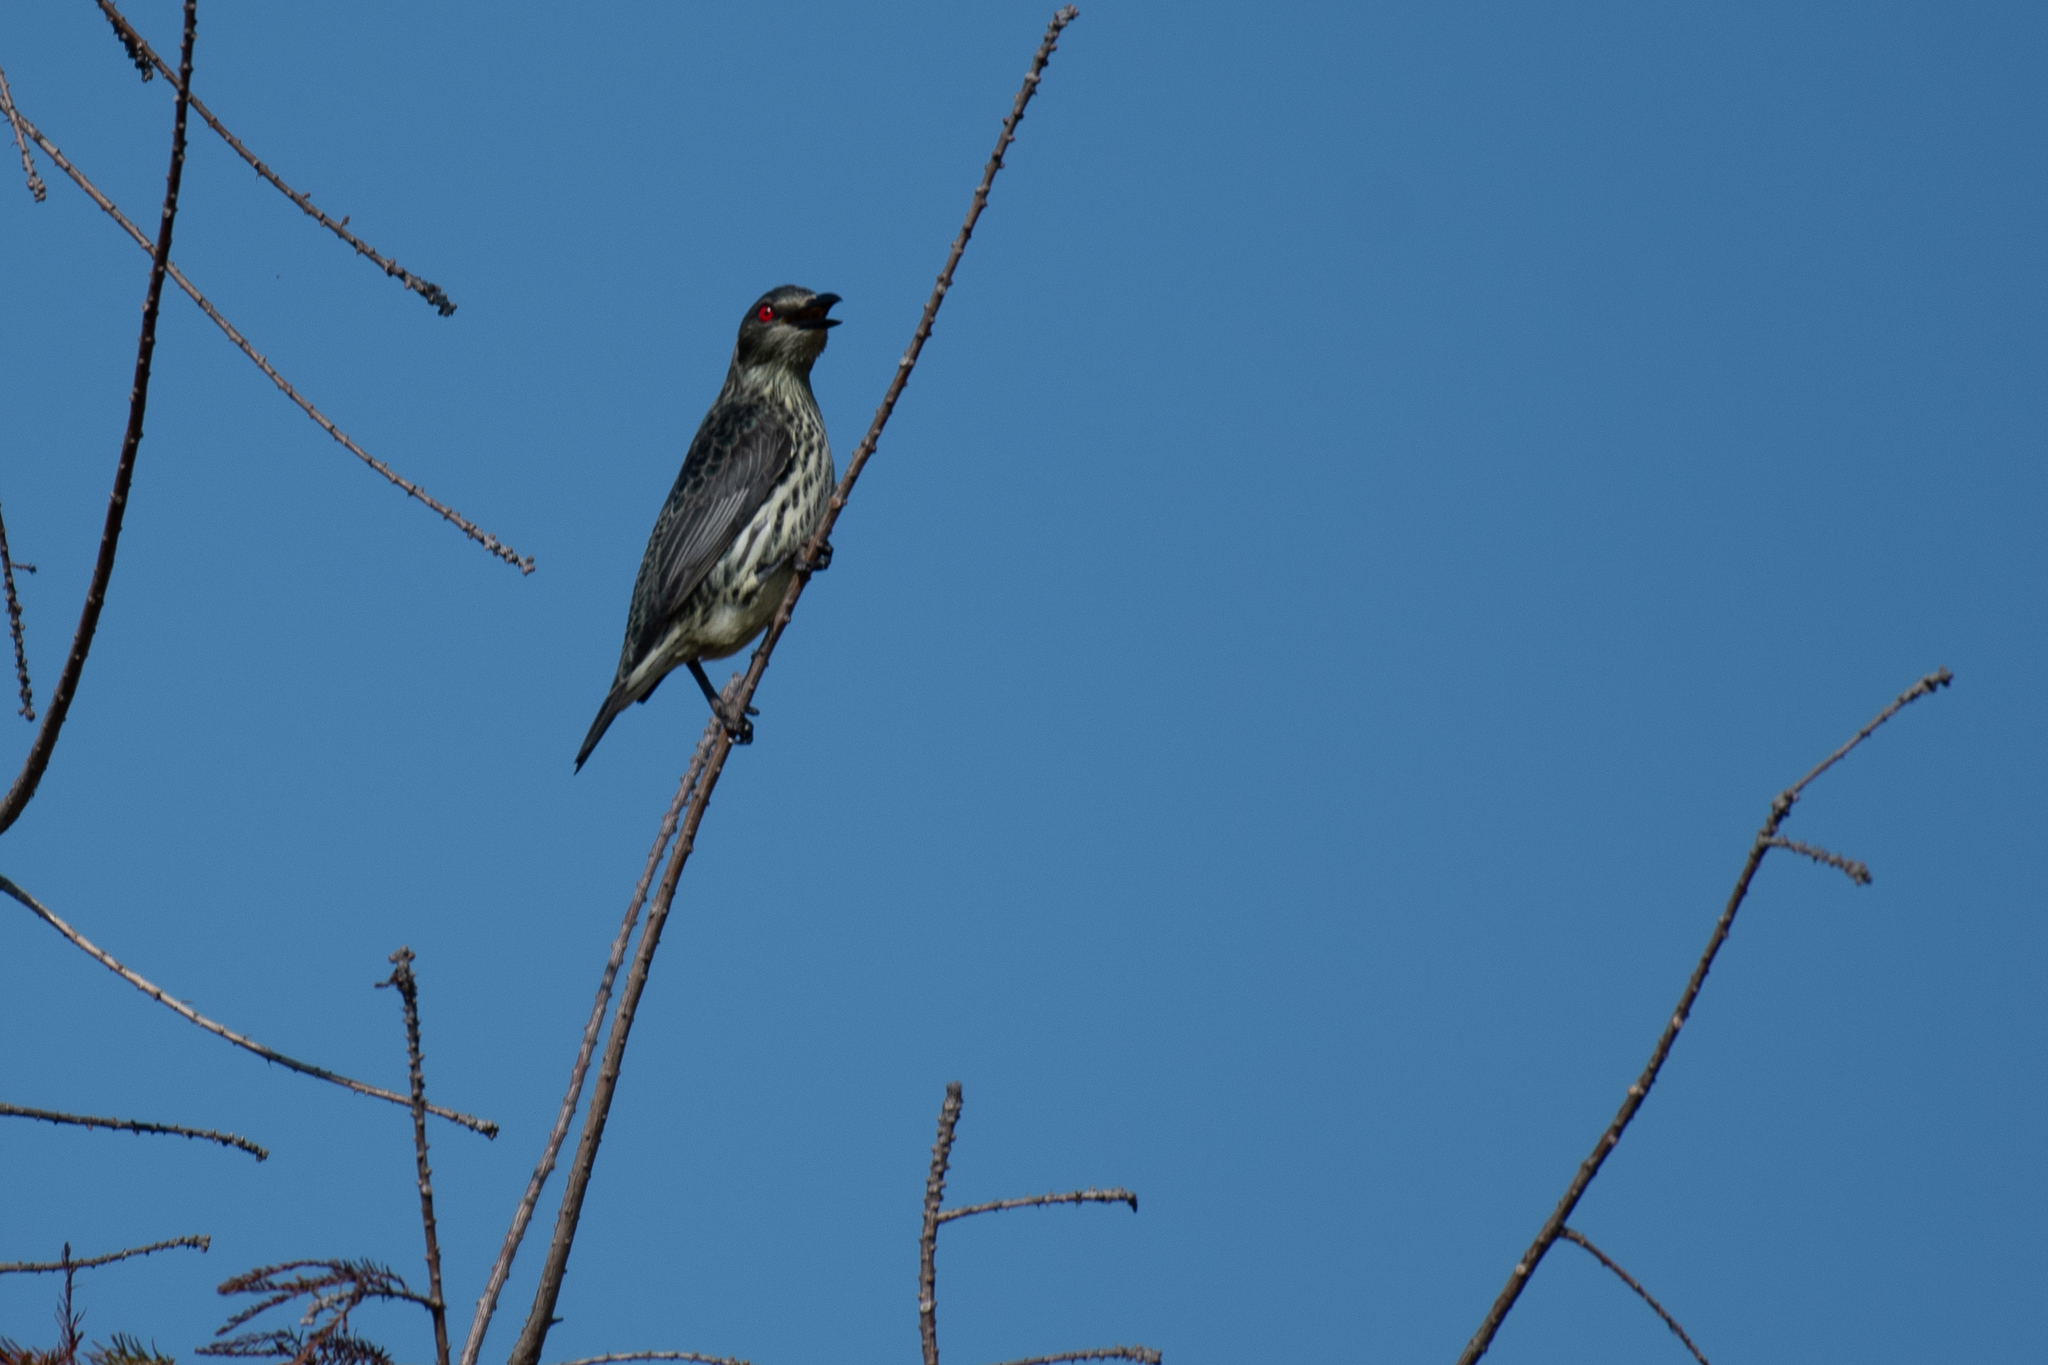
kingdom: Animalia
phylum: Chordata
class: Aves
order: Passeriformes
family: Sturnidae
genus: Aplonis
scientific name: Aplonis panayensis
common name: Asian glossy starling
